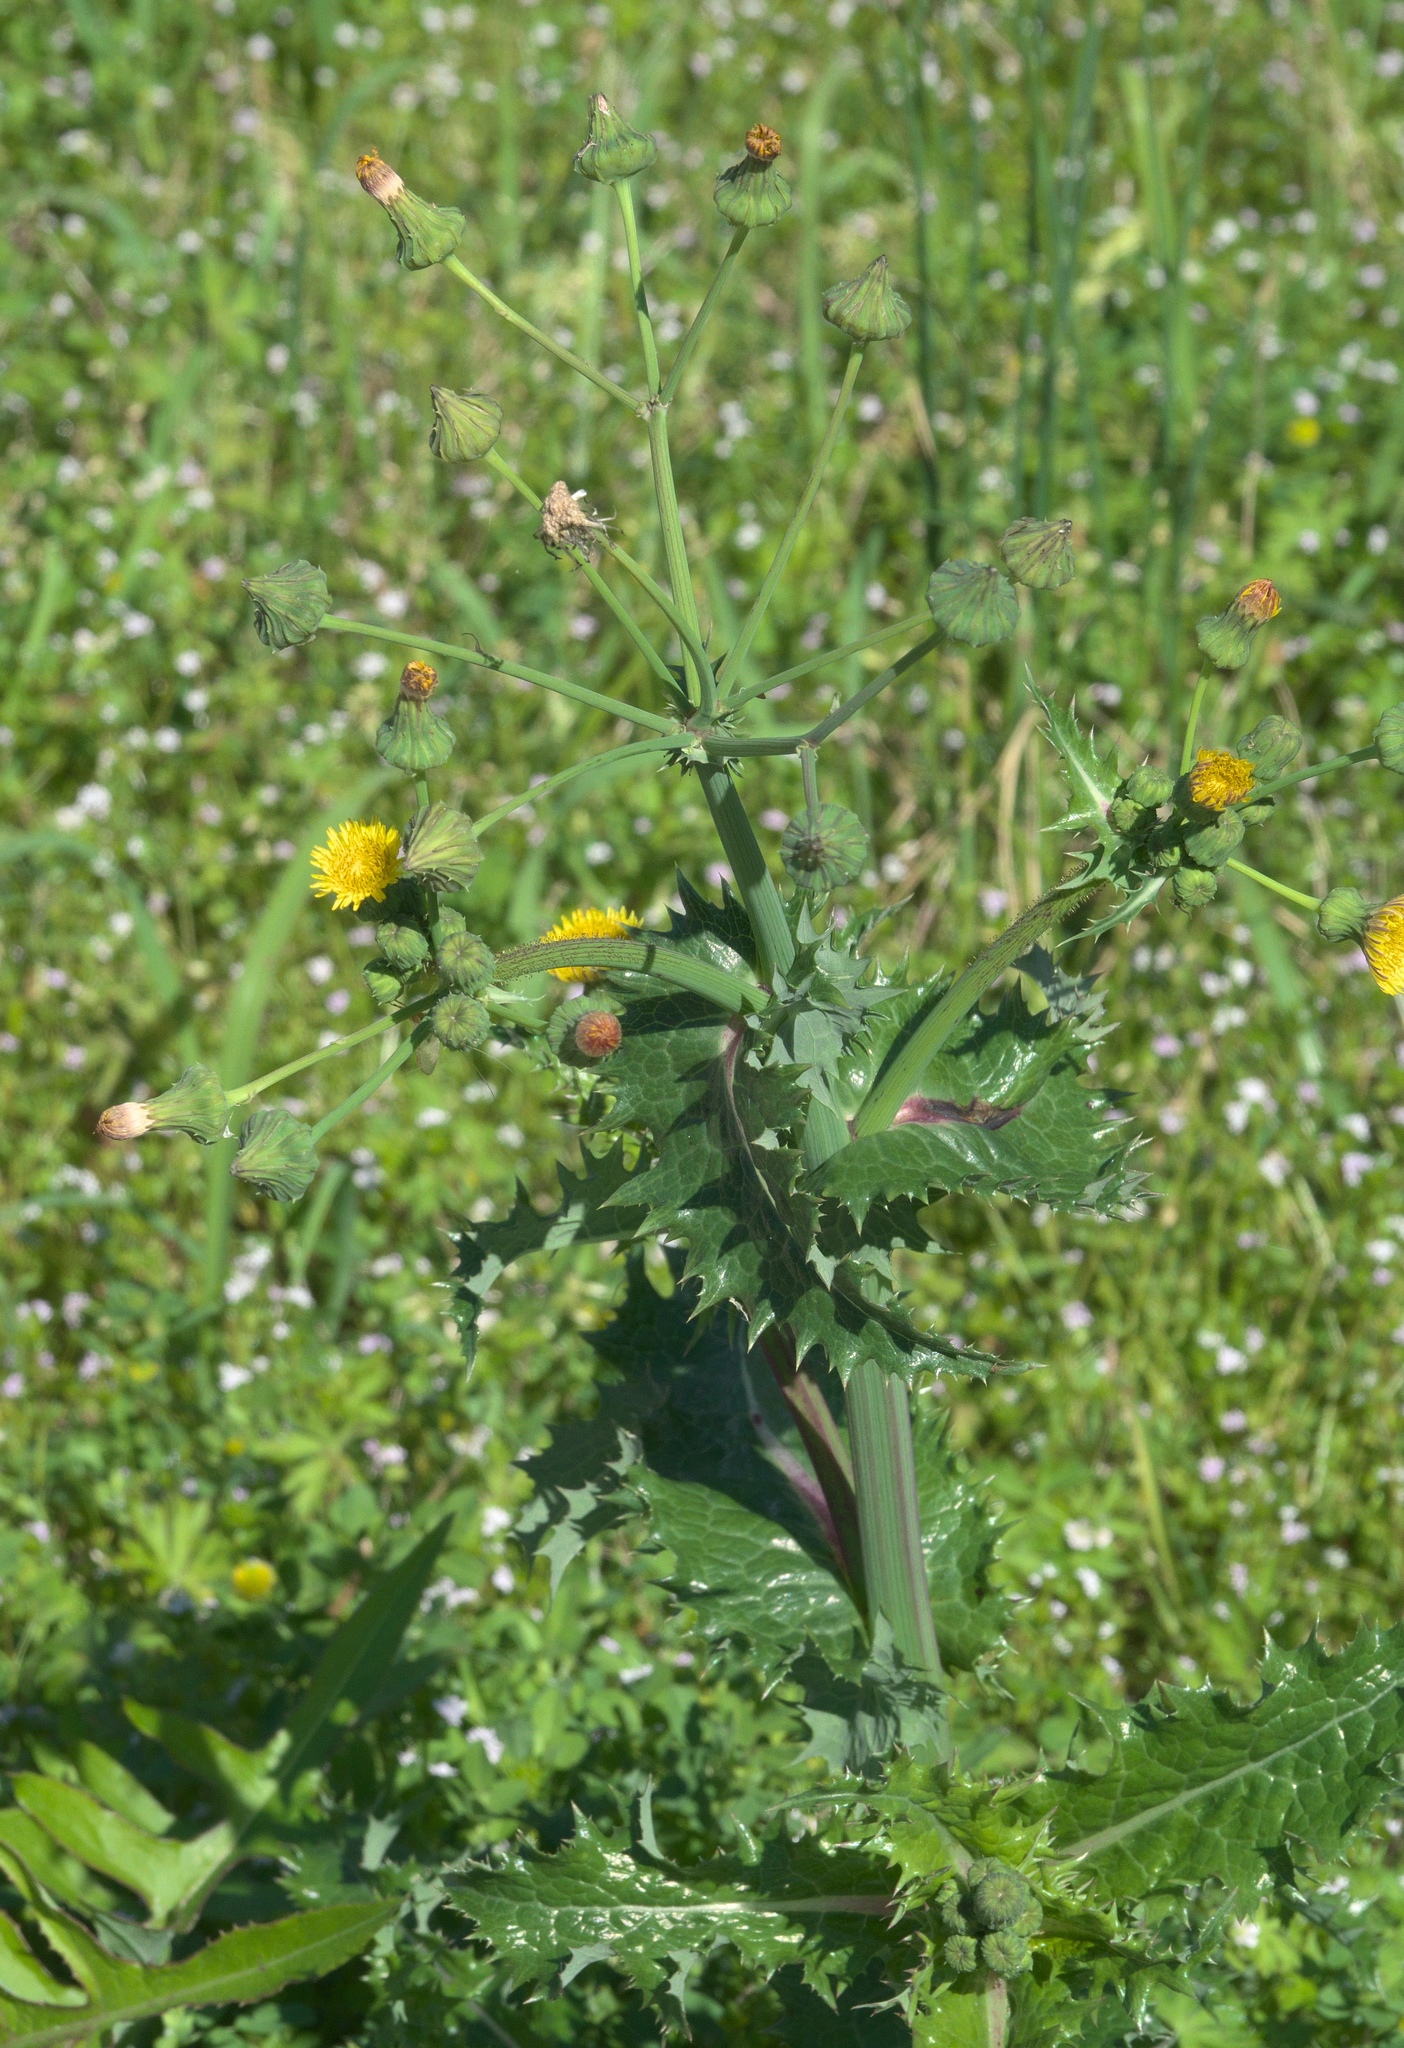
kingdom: Plantae
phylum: Tracheophyta
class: Magnoliopsida
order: Asterales
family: Asteraceae
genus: Sonchus
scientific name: Sonchus asper
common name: Prickly sow-thistle
